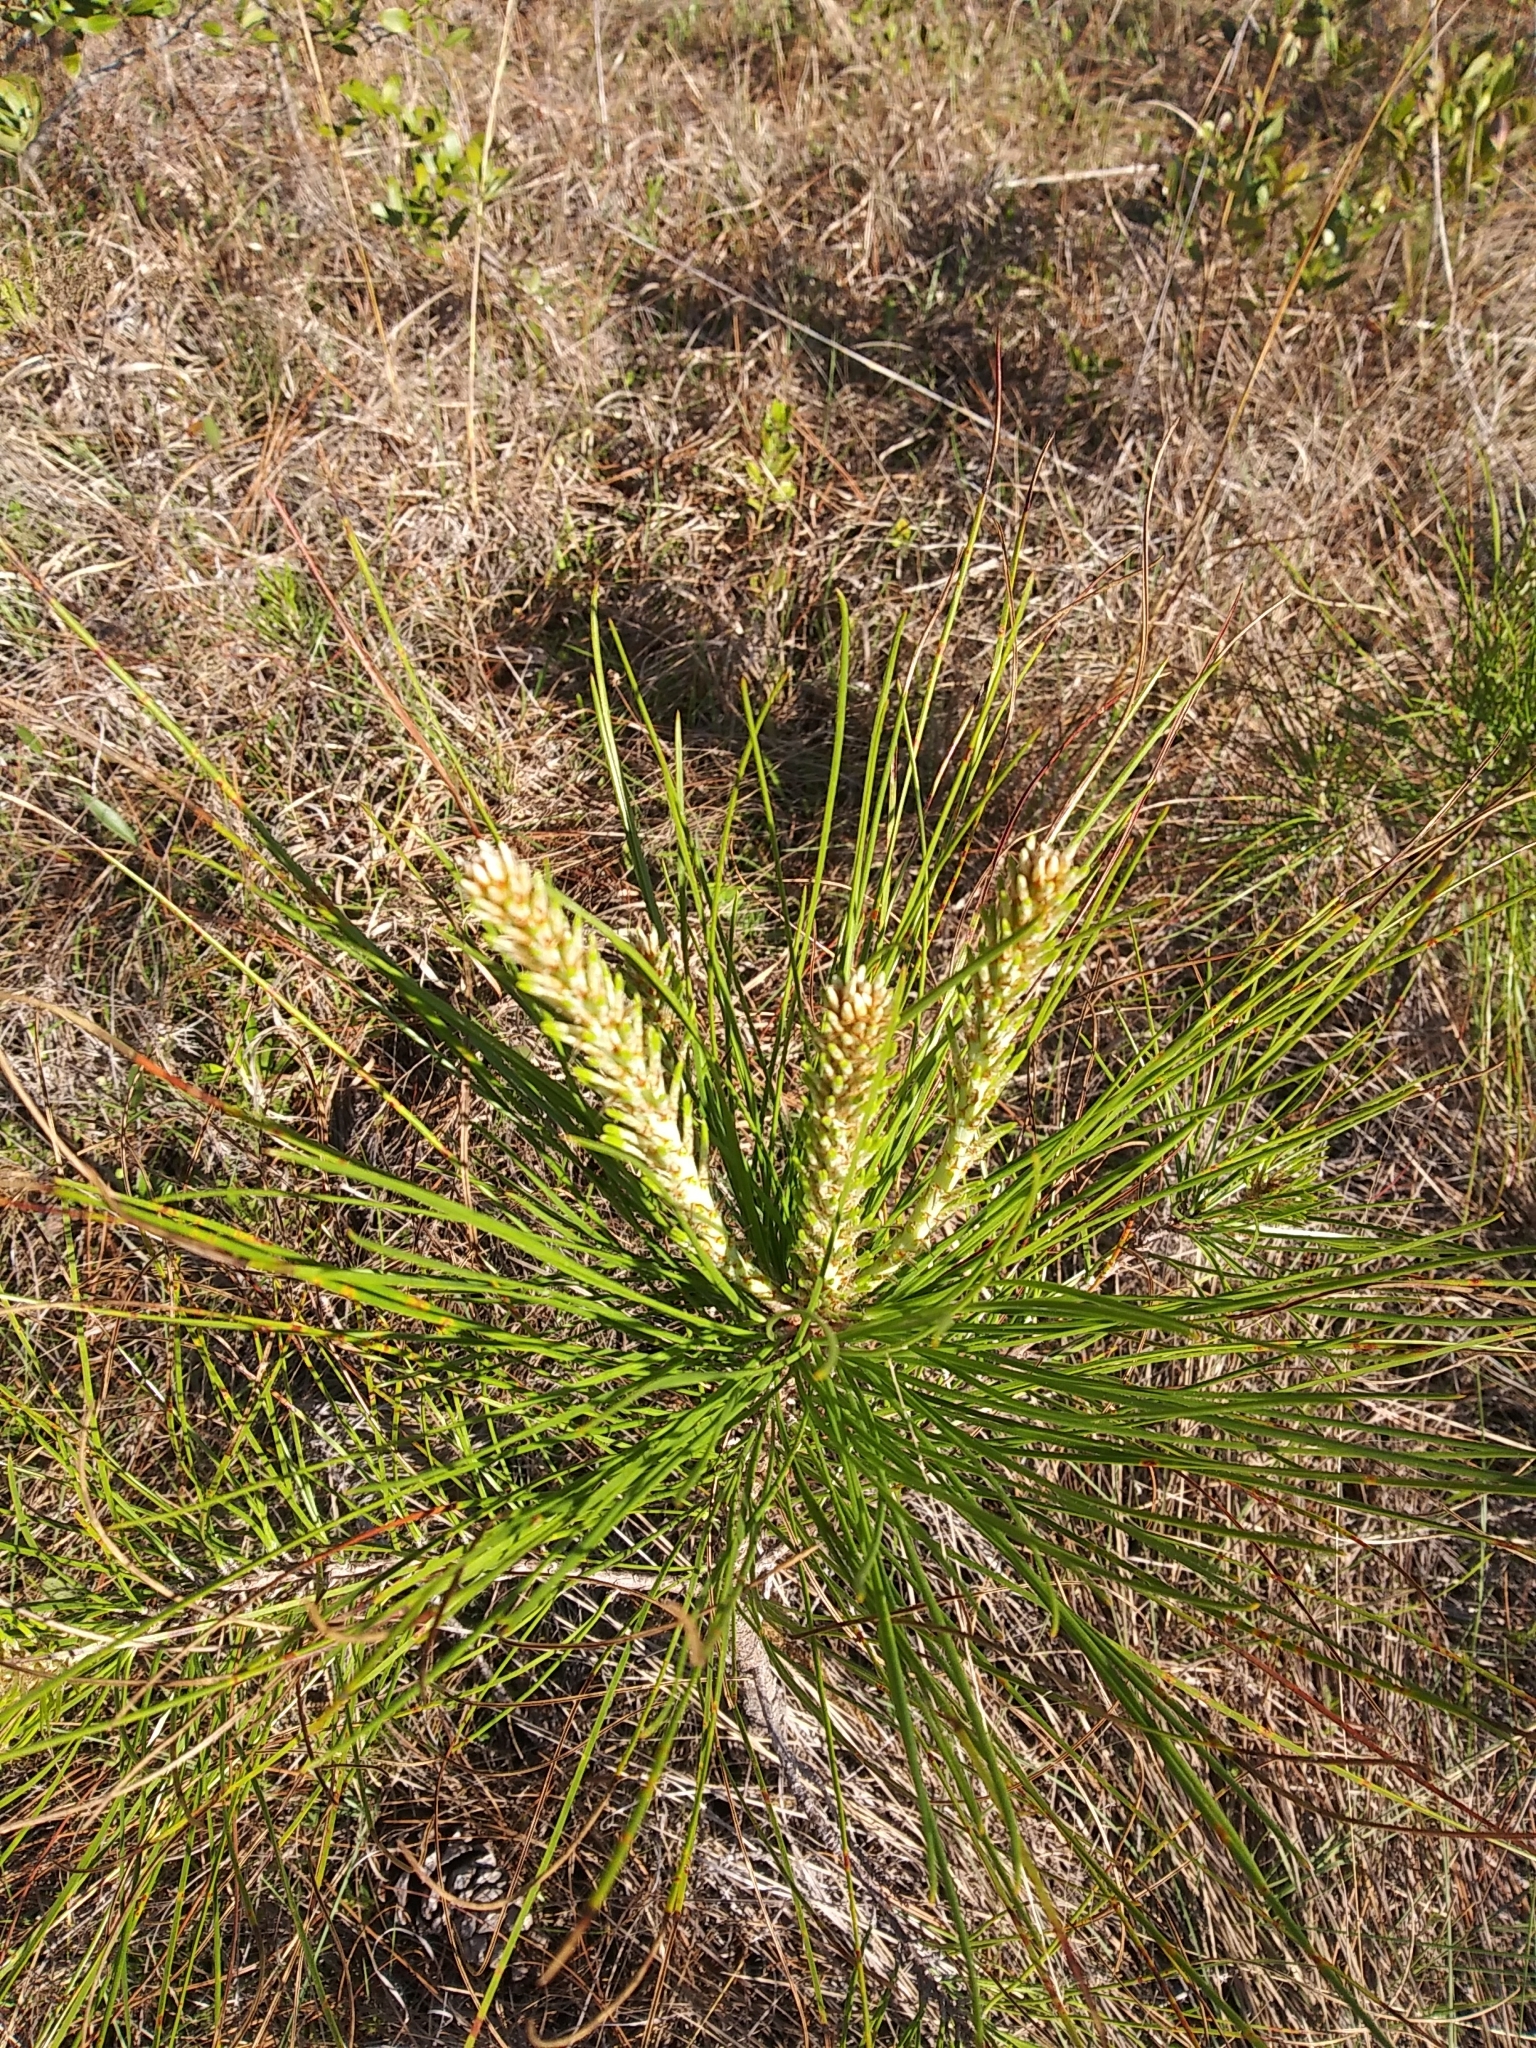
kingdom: Plantae
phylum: Tracheophyta
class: Pinopsida
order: Pinales
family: Pinaceae
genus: Pinus
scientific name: Pinus elliottii
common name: Slash pine
